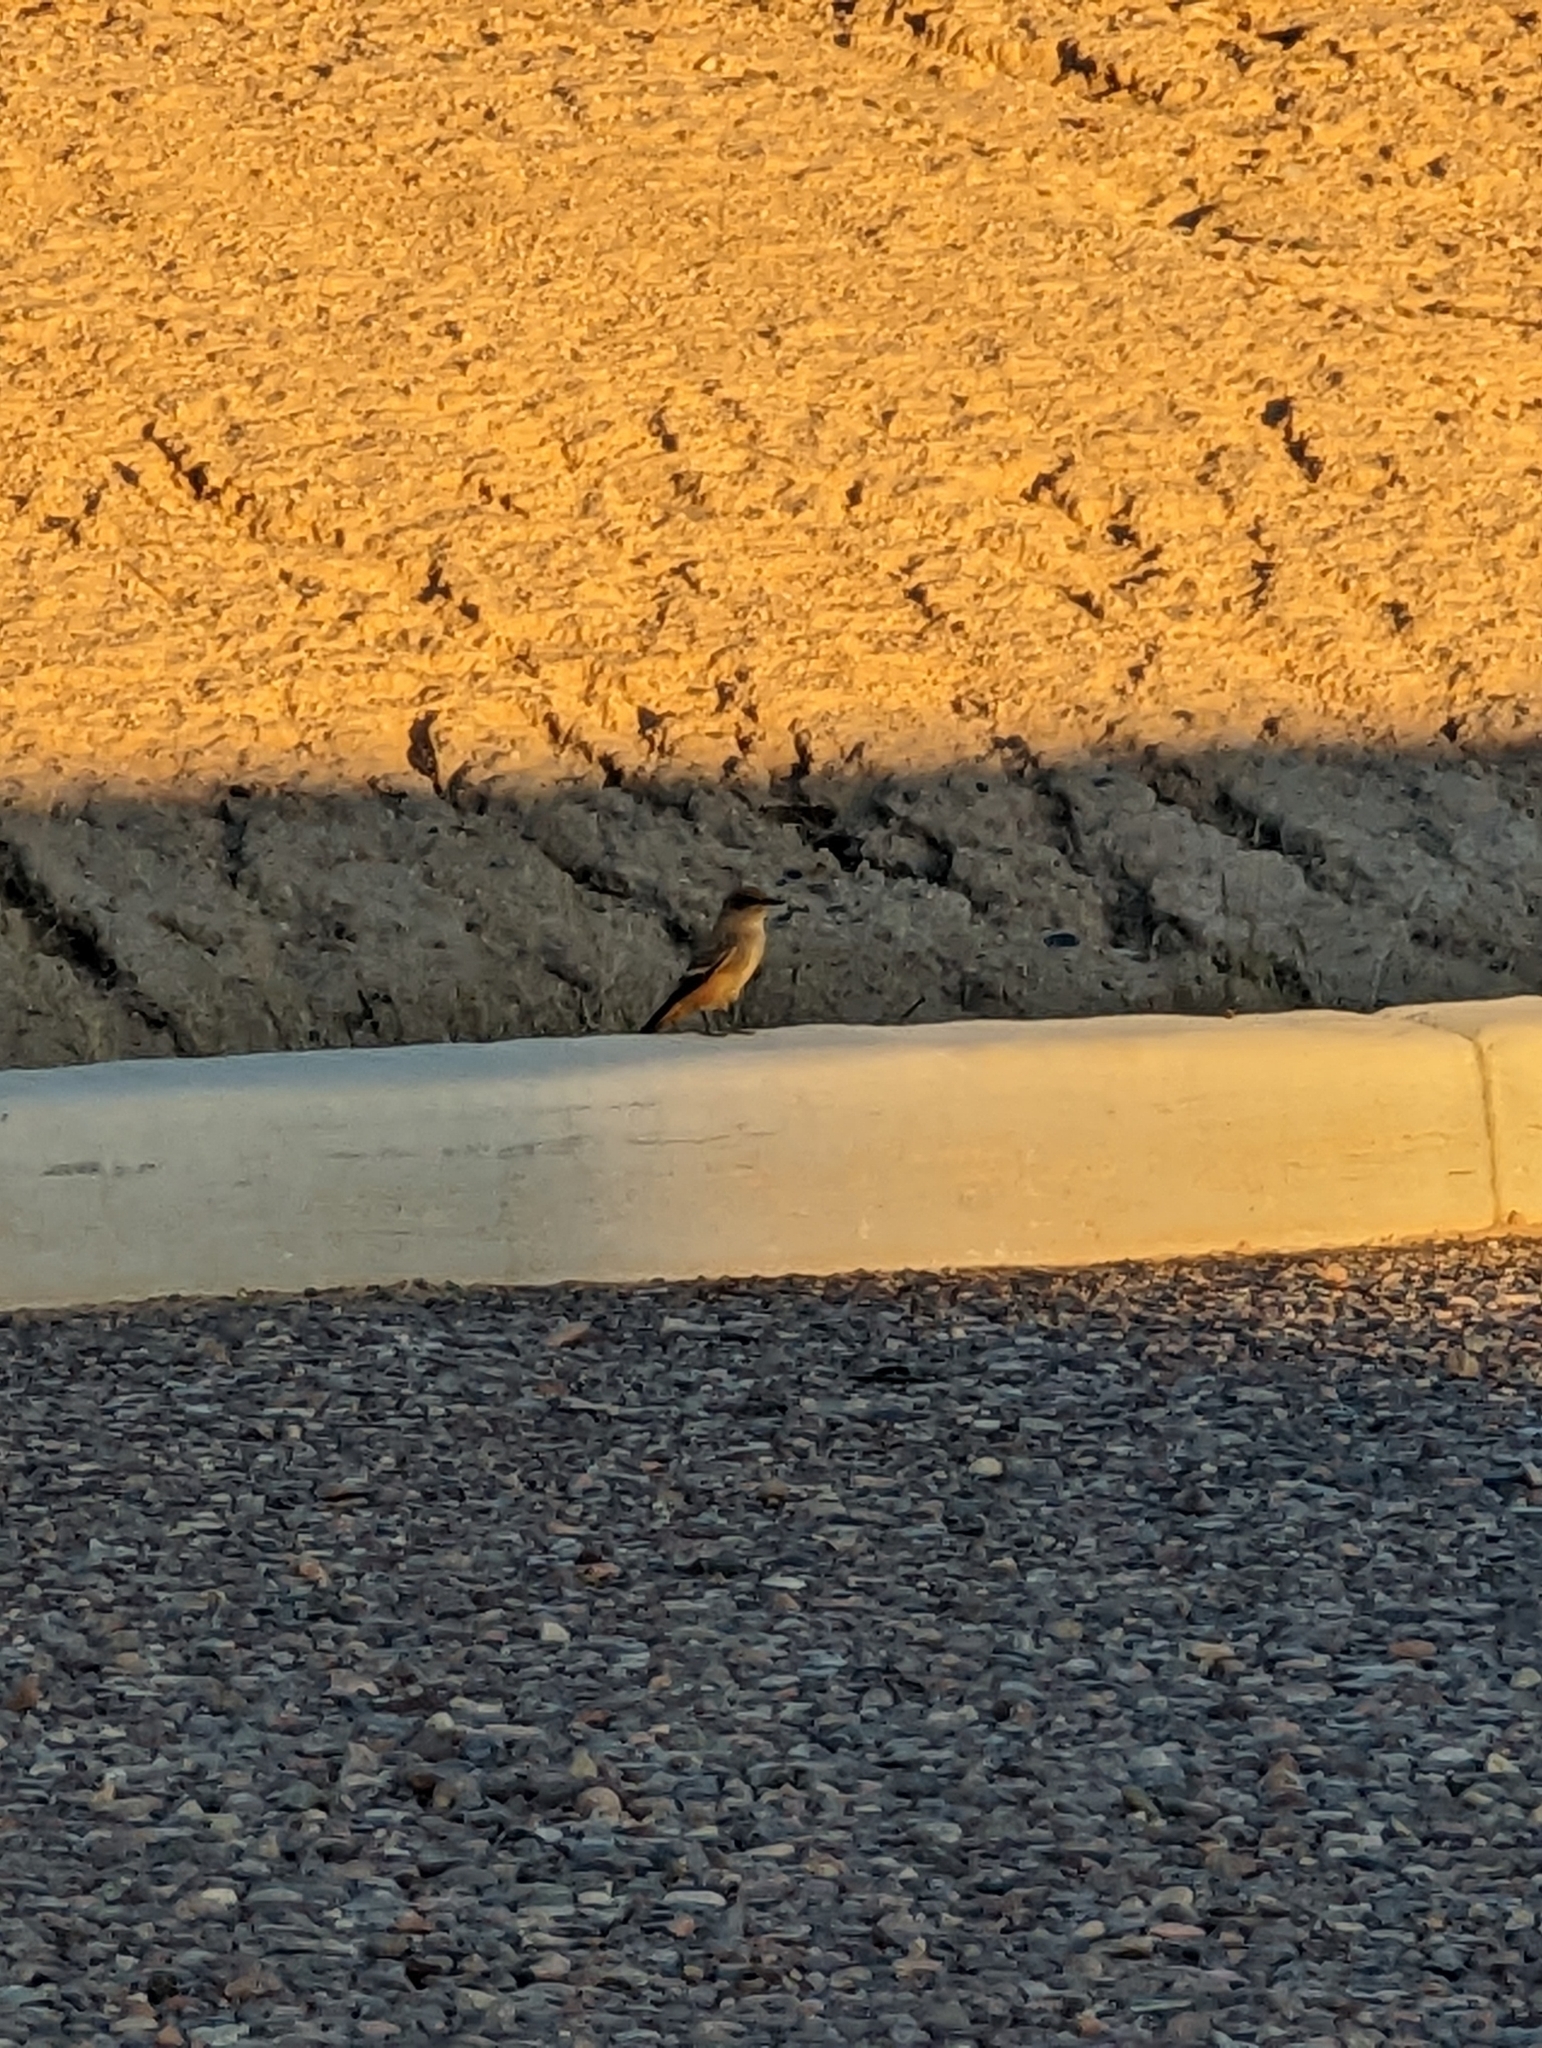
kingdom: Animalia
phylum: Chordata
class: Aves
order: Passeriformes
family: Tyrannidae
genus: Sayornis
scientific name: Sayornis saya
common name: Say's phoebe
